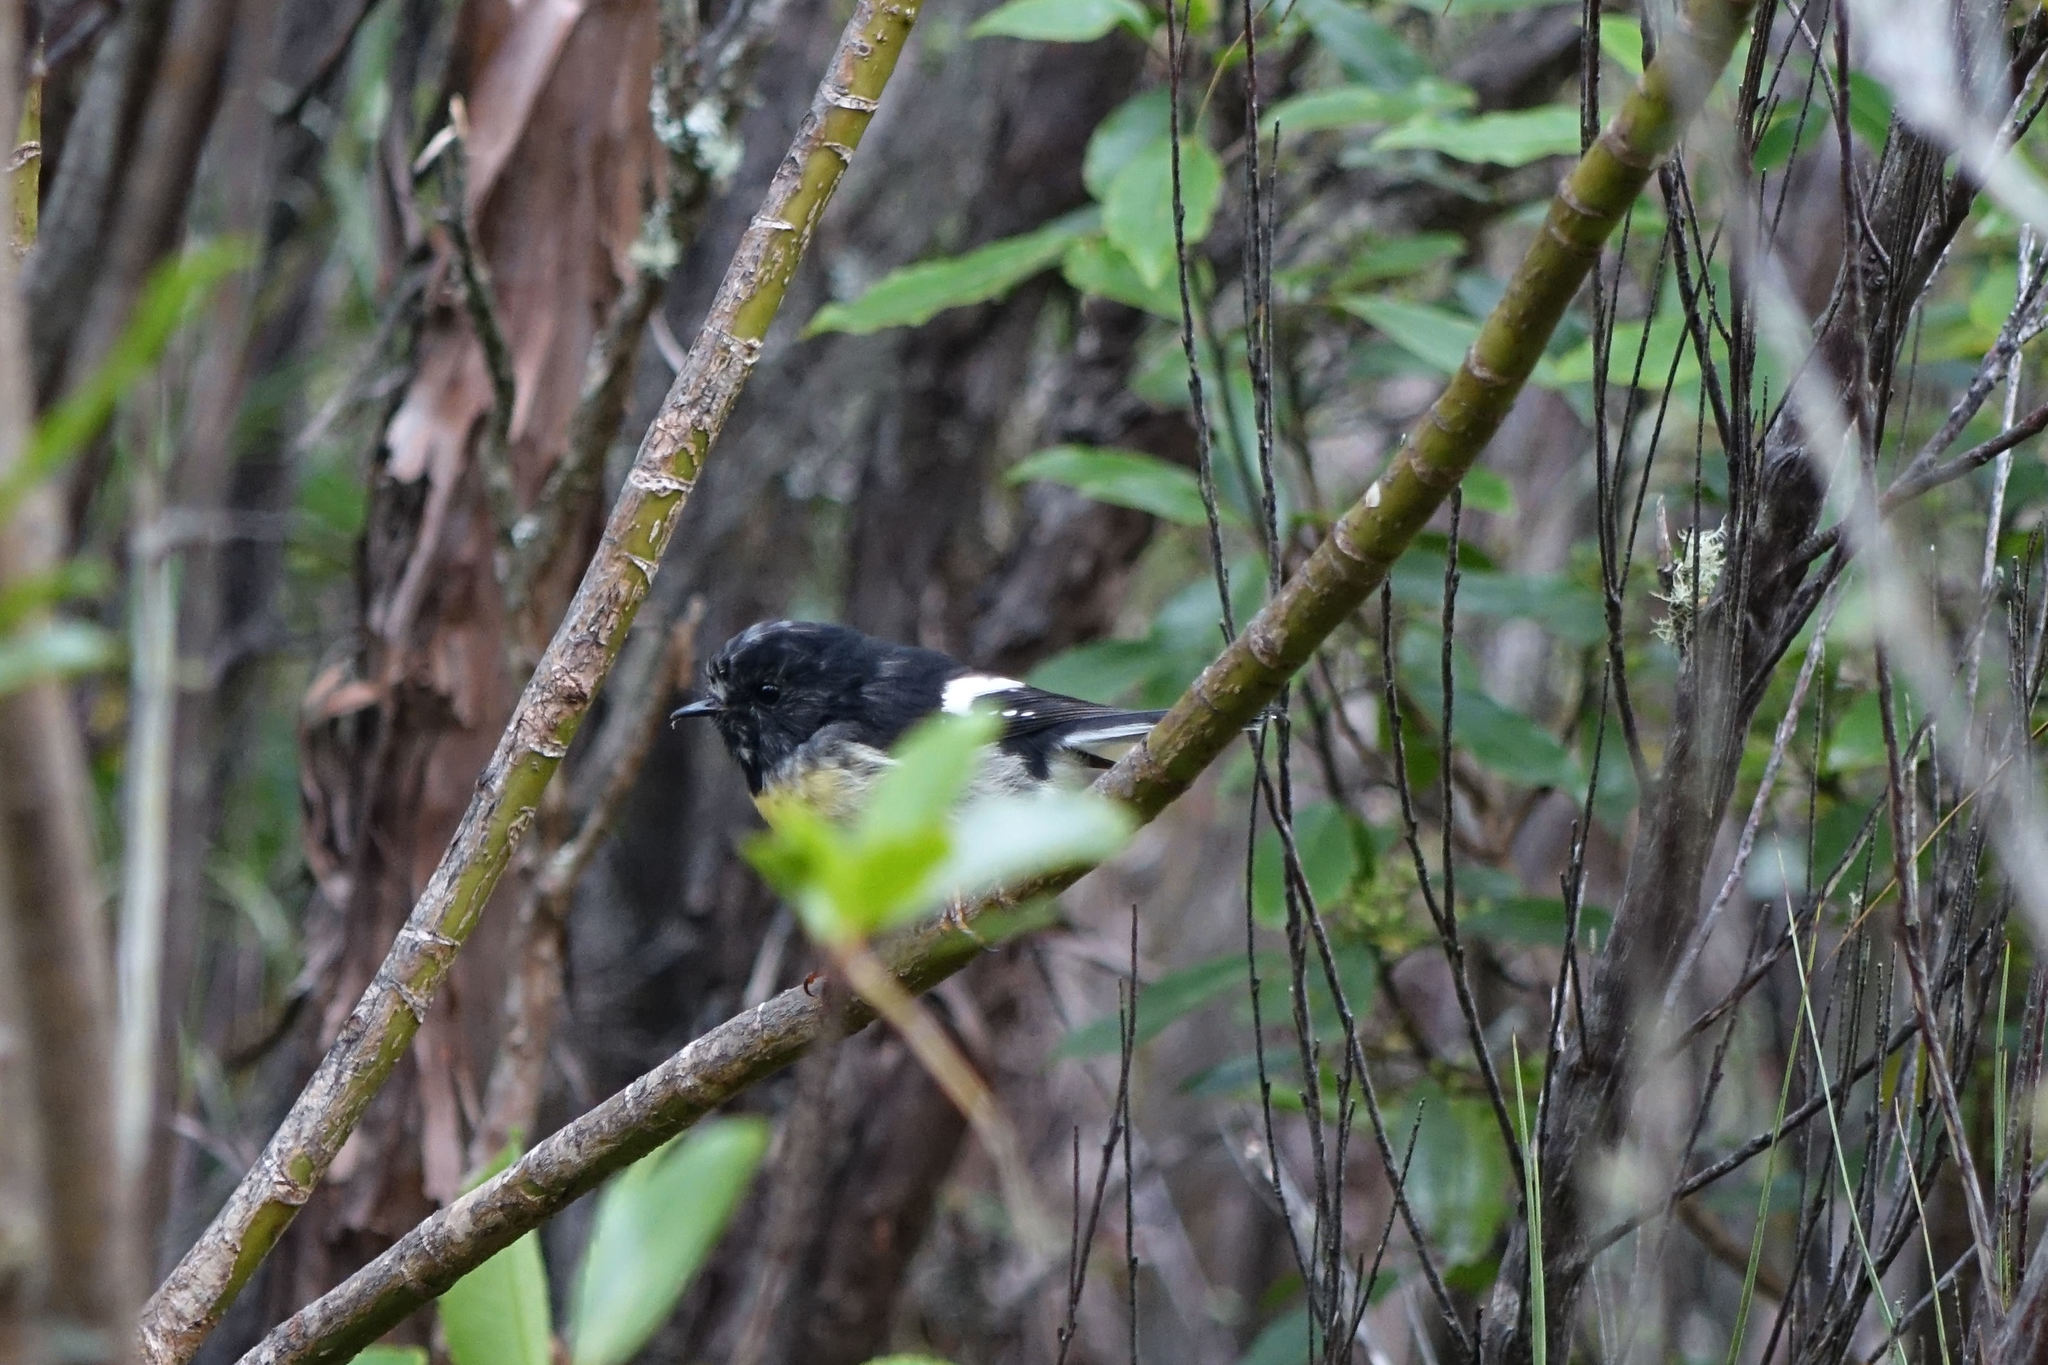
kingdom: Animalia
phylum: Chordata
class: Aves
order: Passeriformes
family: Petroicidae
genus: Petroica
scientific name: Petroica macrocephala
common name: Tomtit
